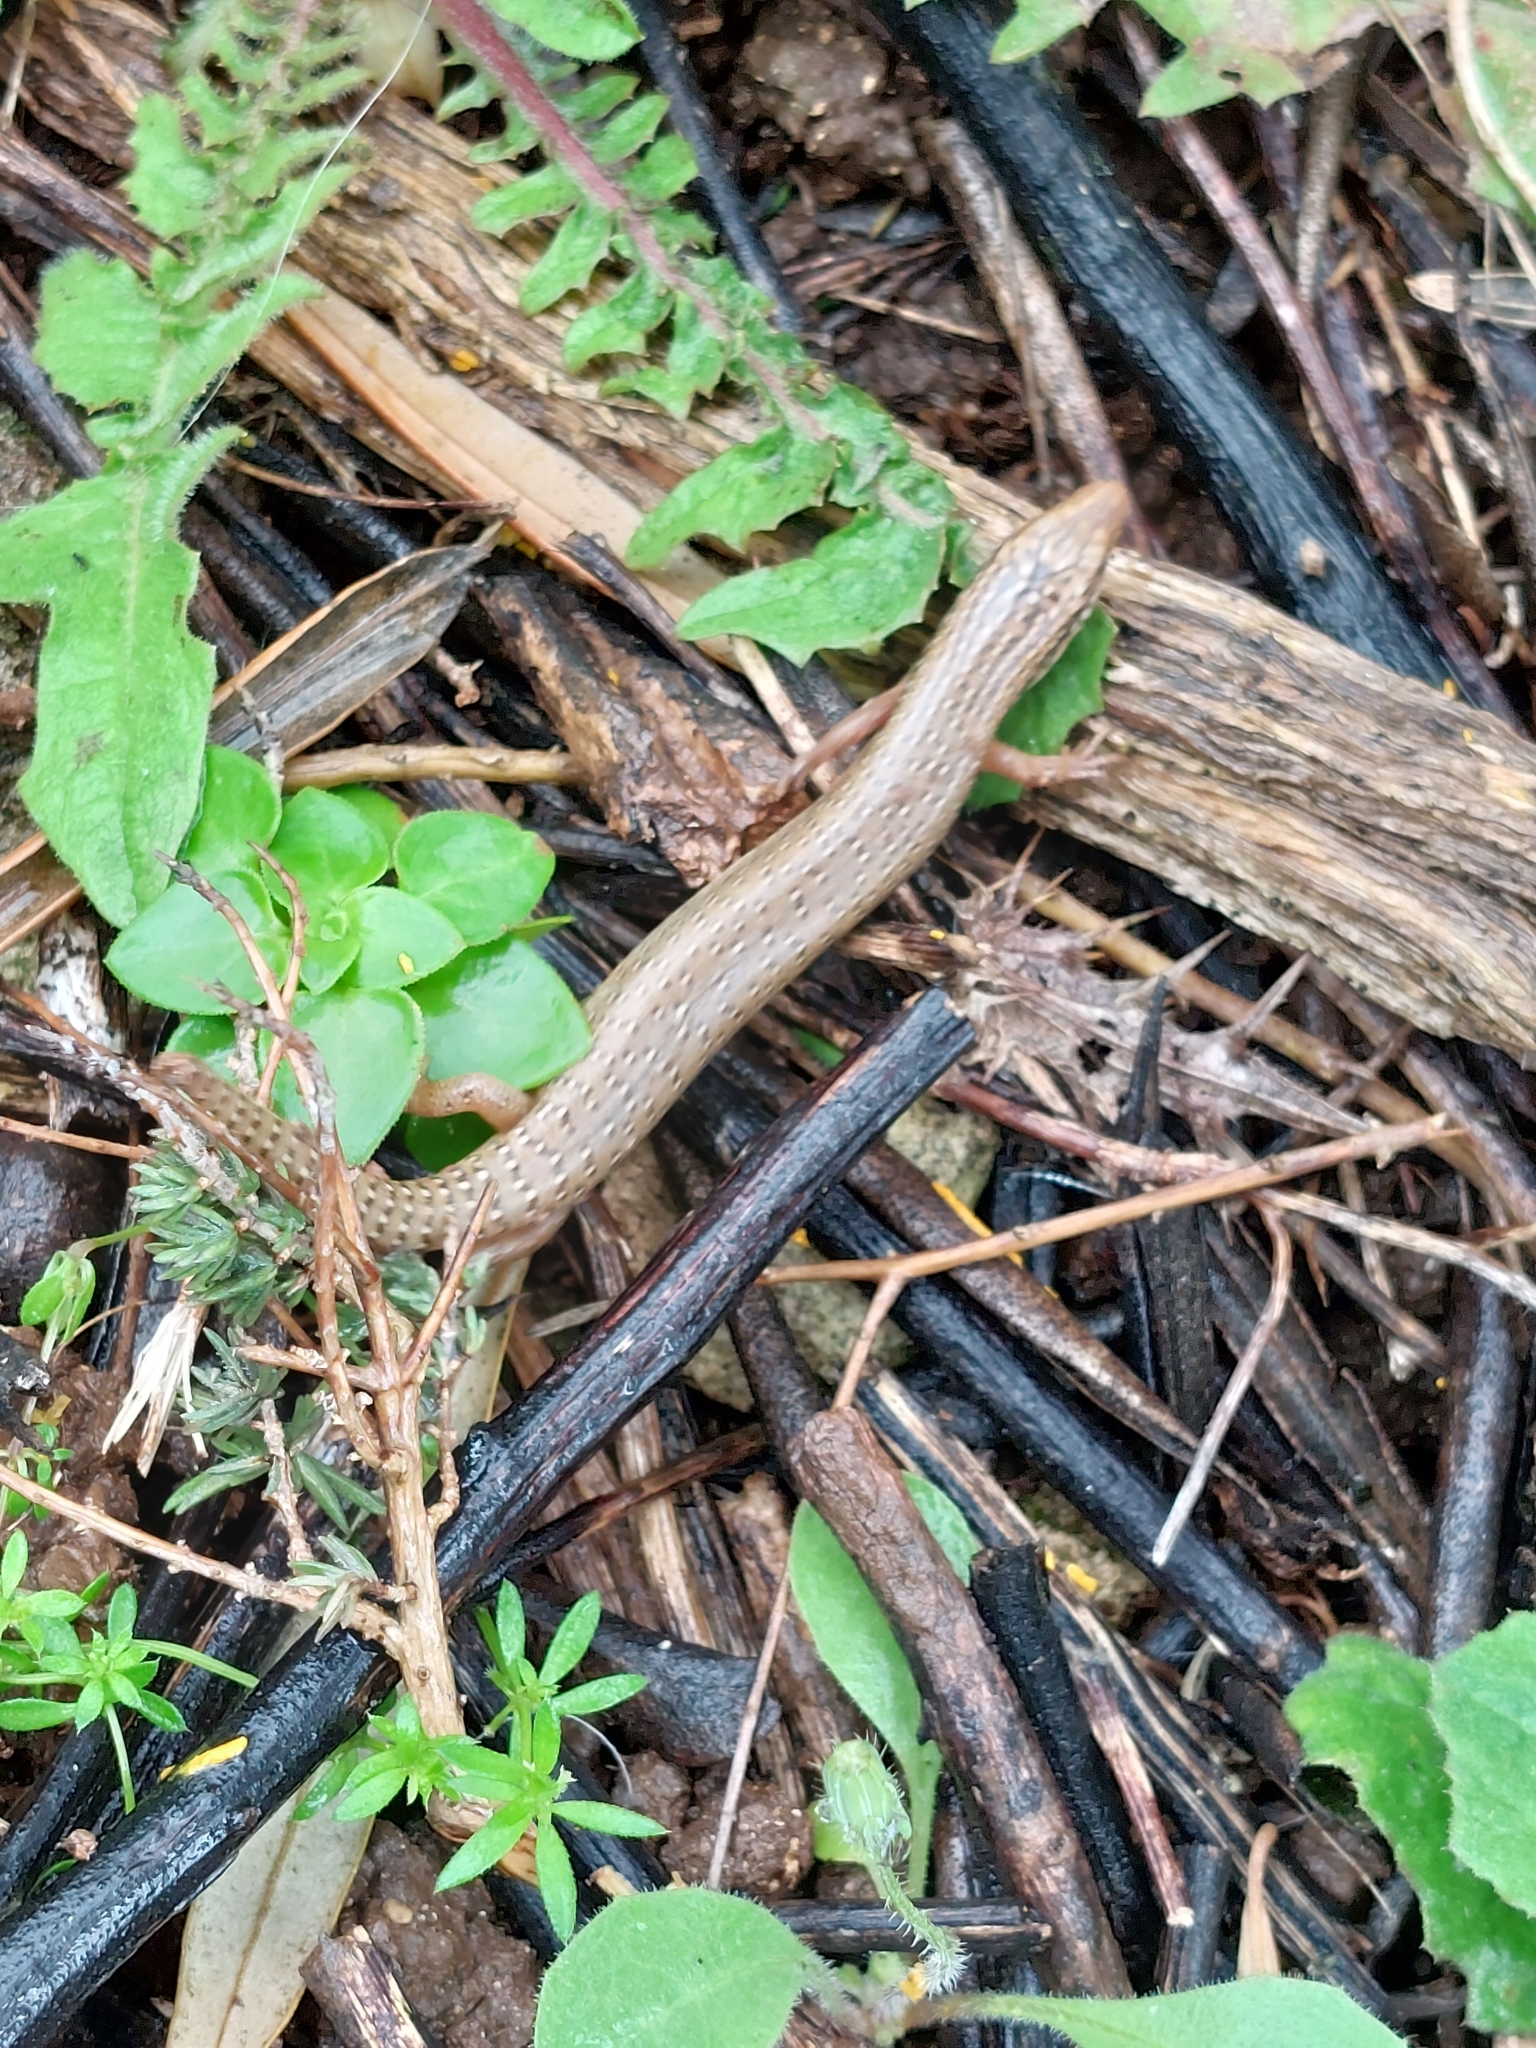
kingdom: Animalia
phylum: Chordata
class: Squamata
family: Scincidae
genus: Chalcides
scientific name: Chalcides ocellatus
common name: Ocellated skink
